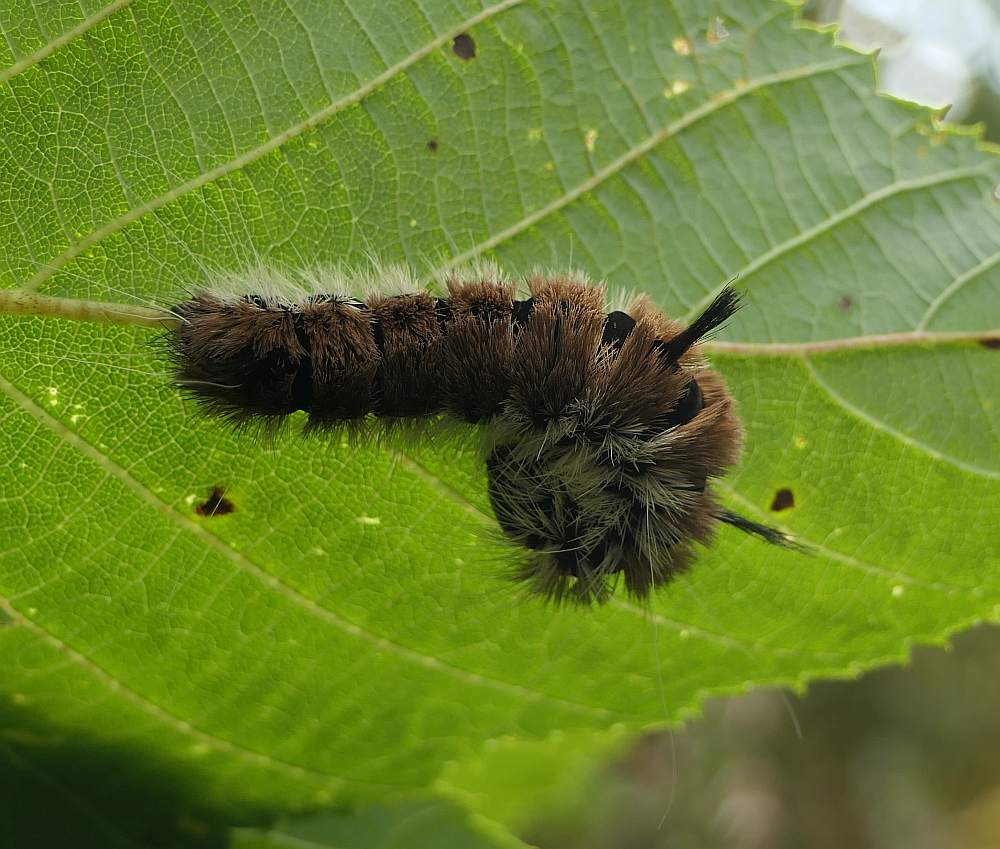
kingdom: Animalia
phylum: Arthropoda
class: Insecta
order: Lepidoptera
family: Noctuidae
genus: Acronicta
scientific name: Acronicta insita
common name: Large gray dagger
